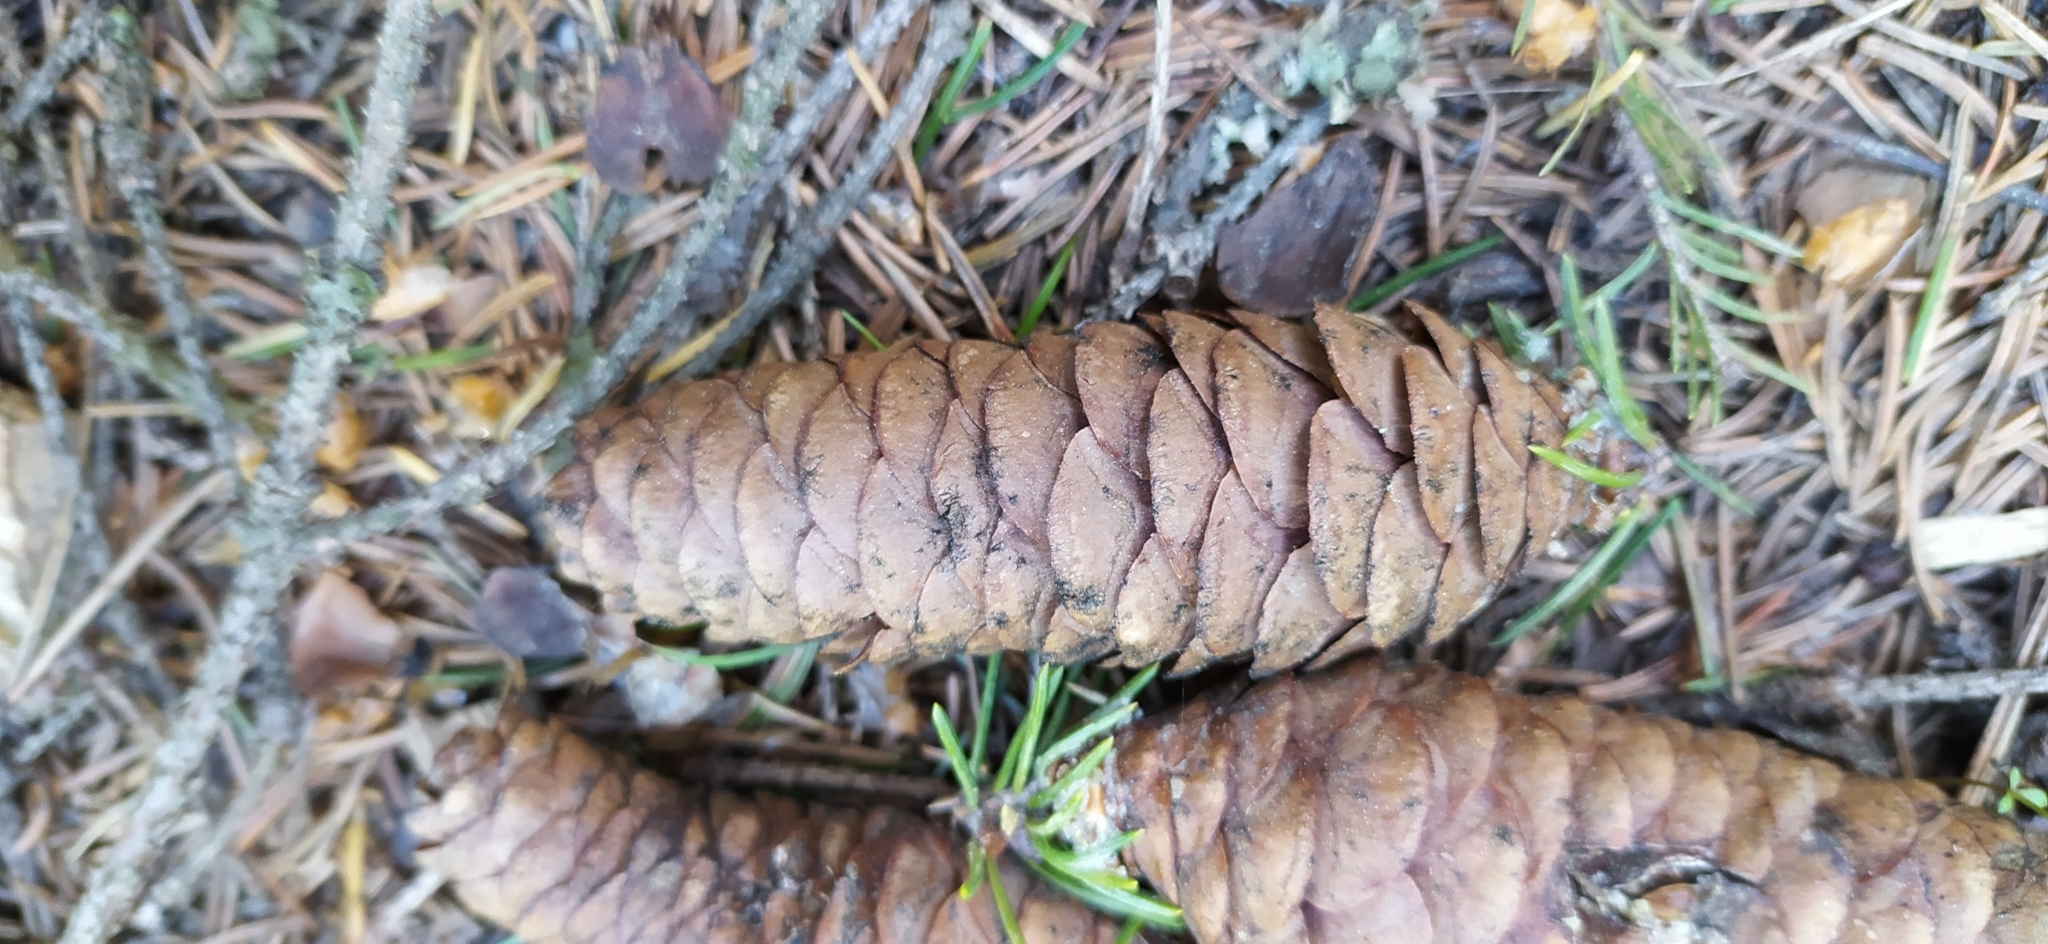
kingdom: Plantae
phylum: Tracheophyta
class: Pinopsida
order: Pinales
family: Pinaceae
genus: Picea
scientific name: Picea obovata
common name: Siberian spruce
